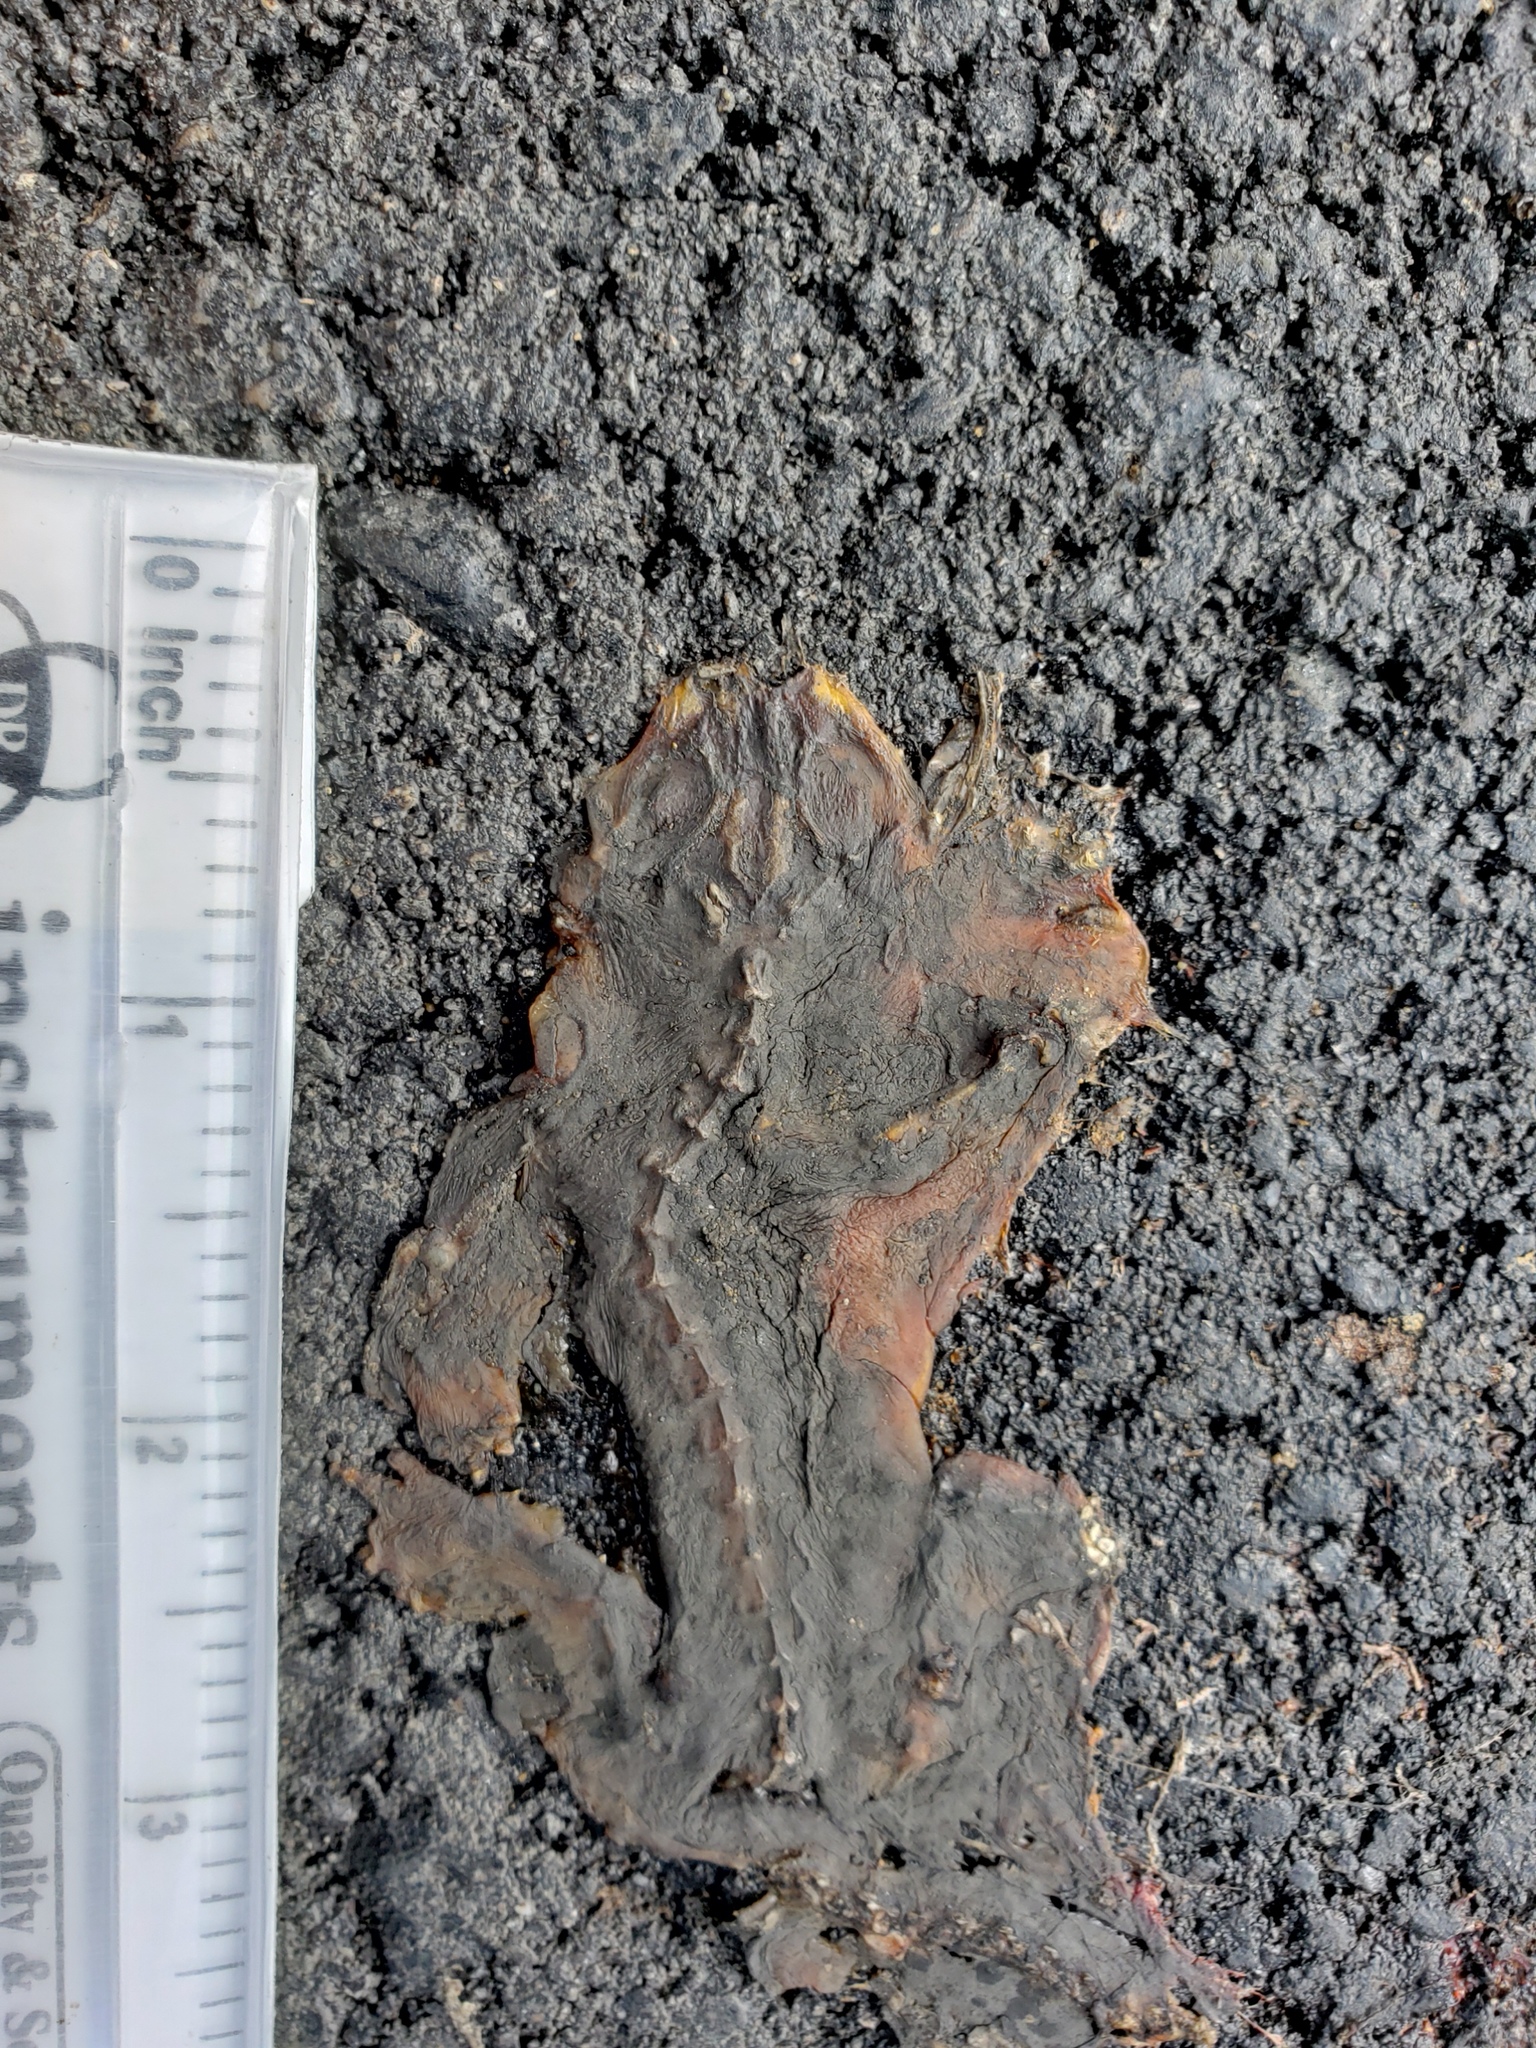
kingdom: Animalia
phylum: Chordata
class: Amphibia
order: Caudata
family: Salamandridae
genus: Taricha
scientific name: Taricha
